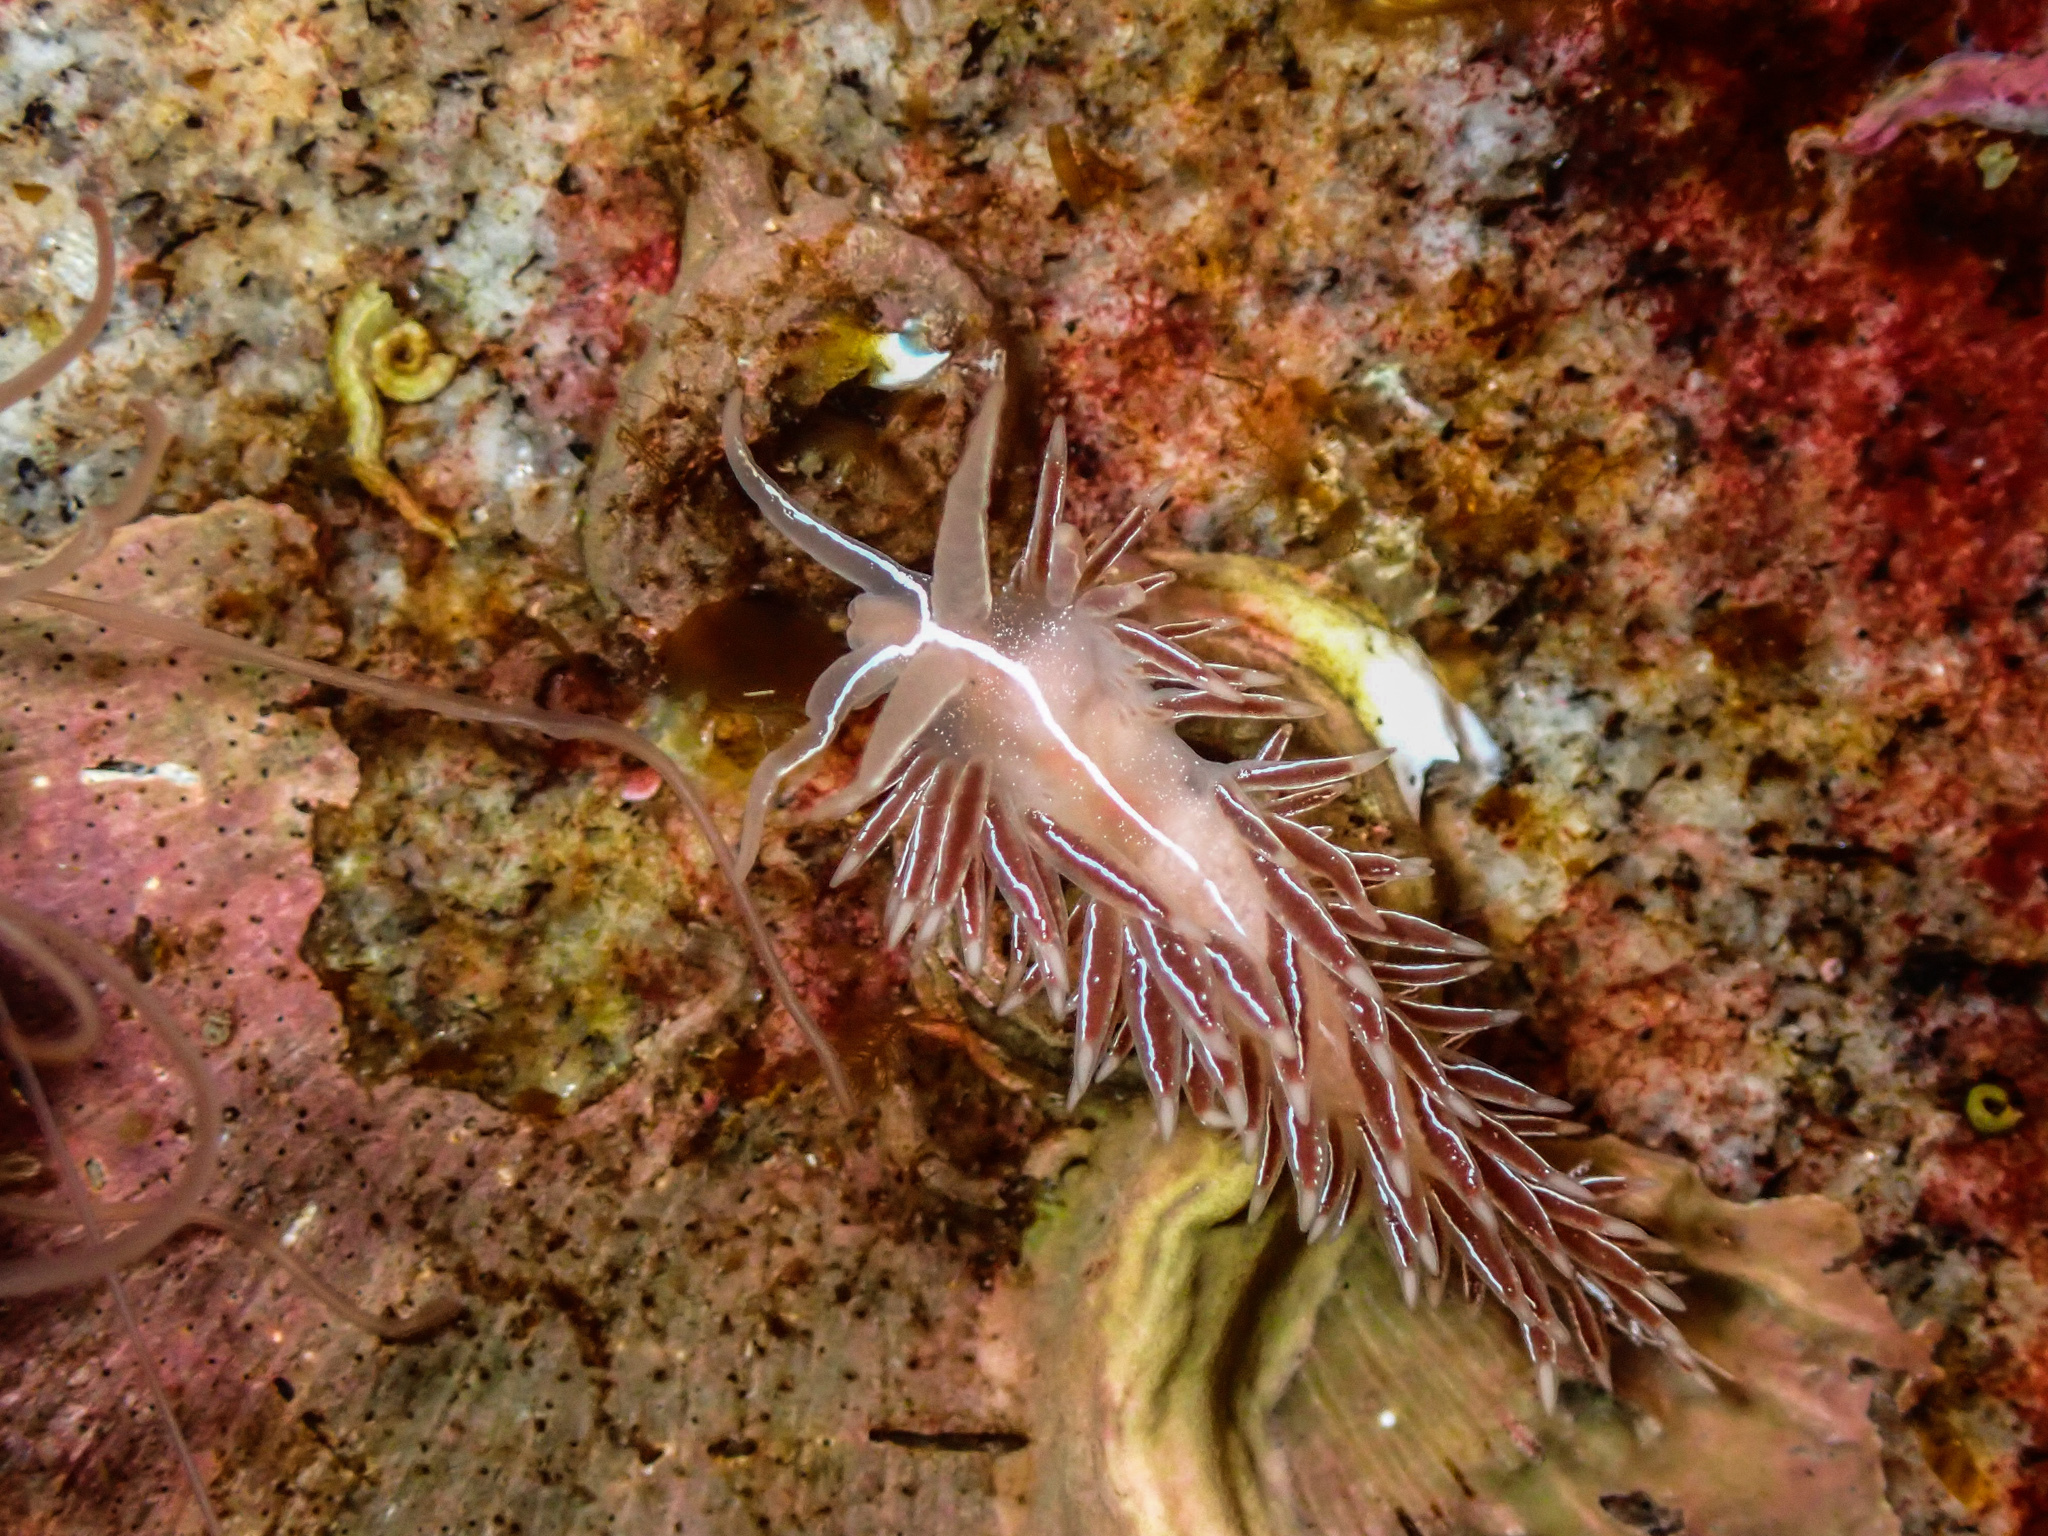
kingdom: Animalia
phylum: Mollusca
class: Gastropoda
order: Nudibranchia
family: Coryphellidae
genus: Coryphella
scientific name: Coryphella chriskaugei
